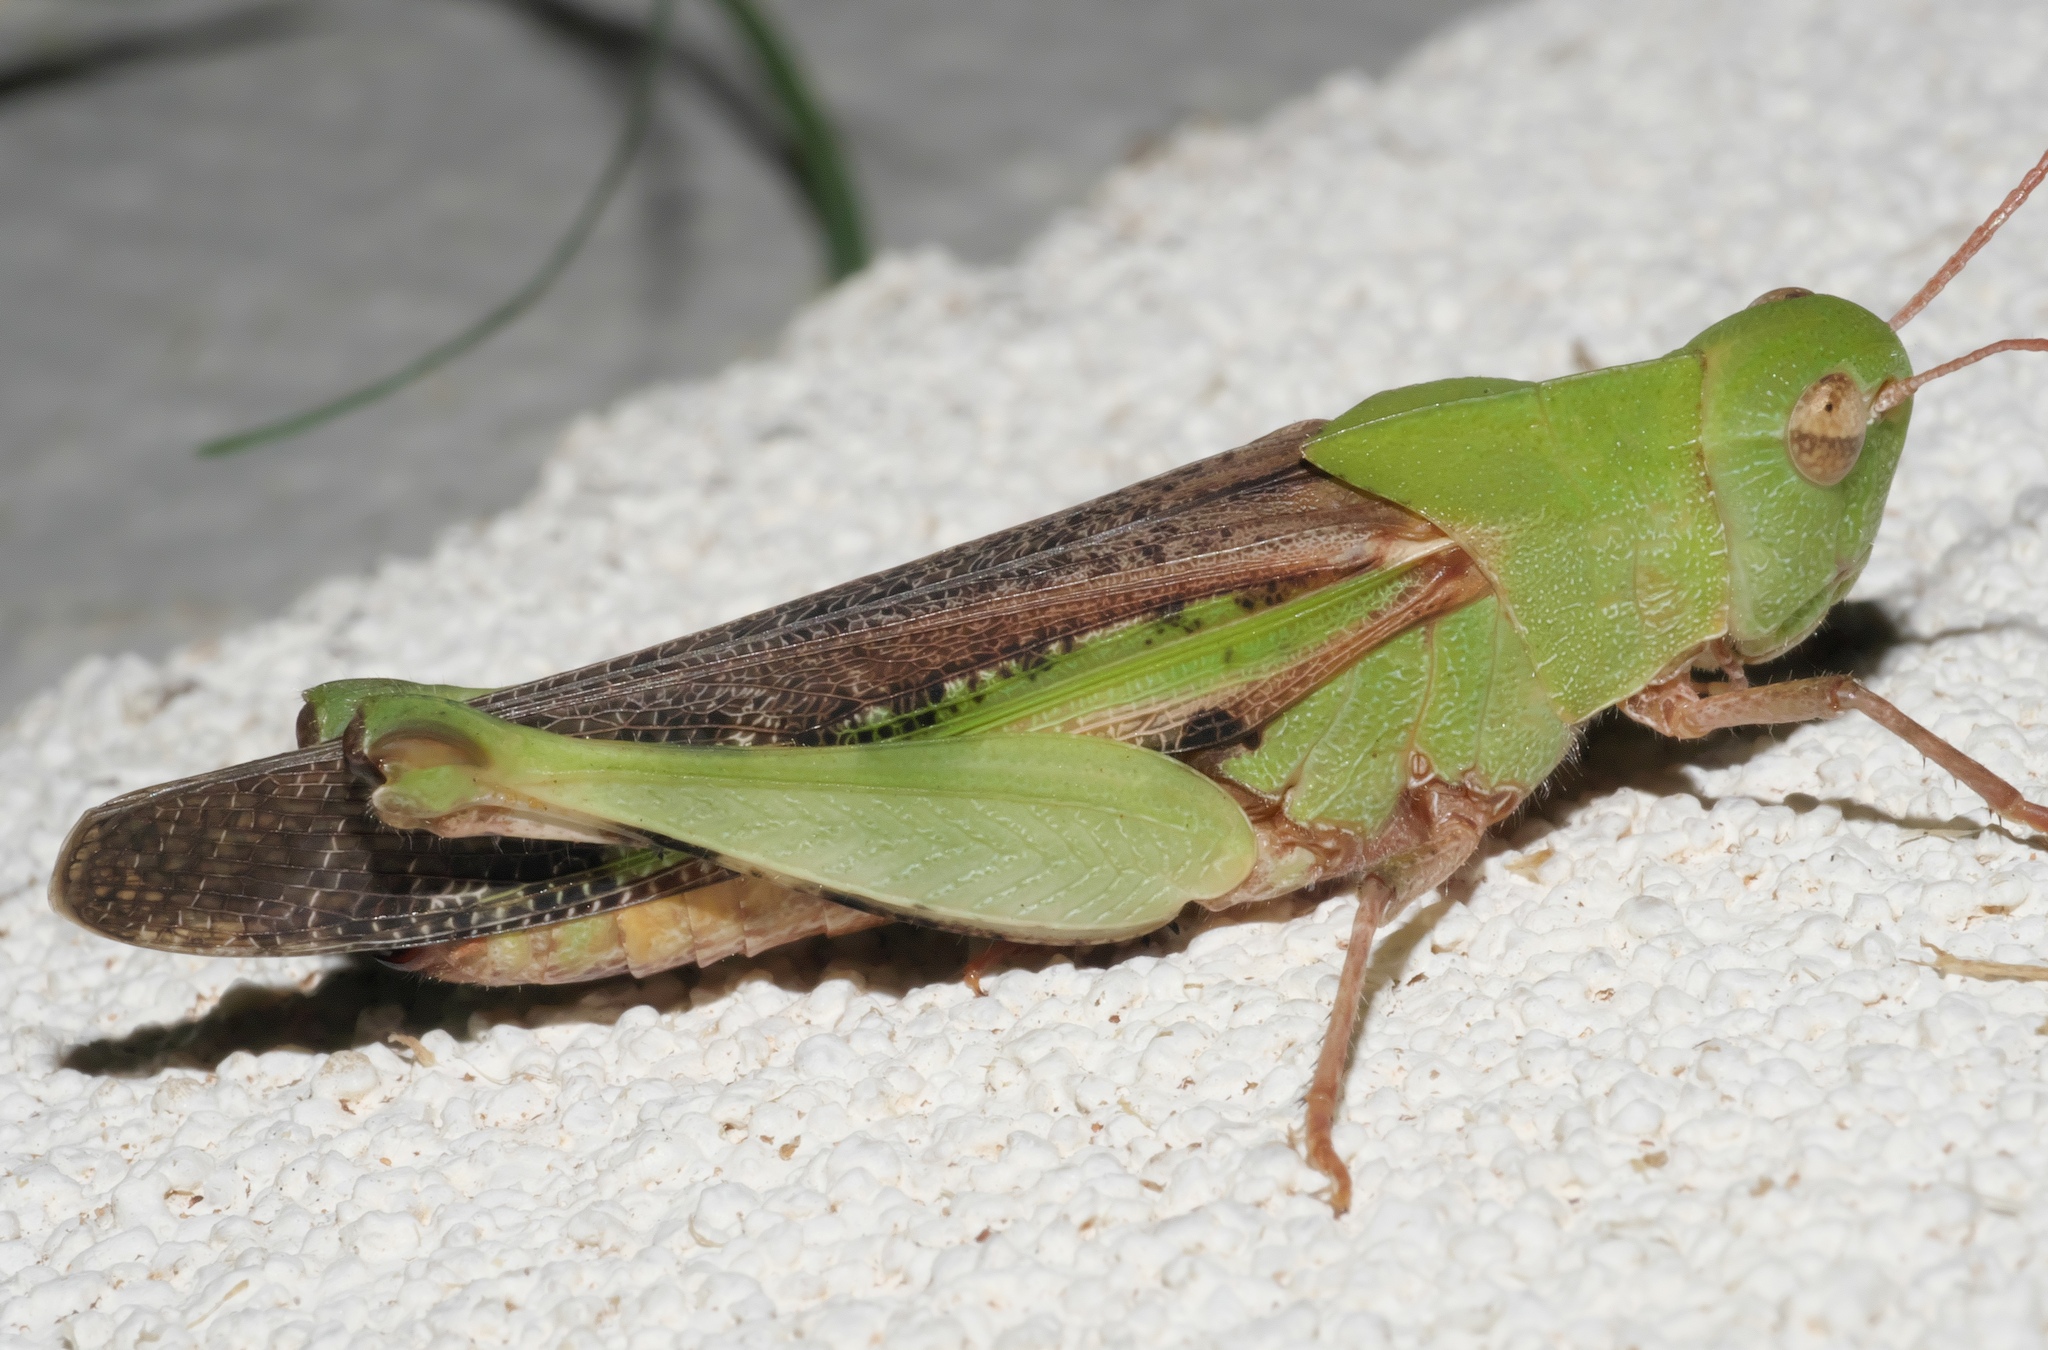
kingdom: Animalia
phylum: Arthropoda
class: Insecta
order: Orthoptera
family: Acrididae
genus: Chortophaga
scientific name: Chortophaga viridifasciata
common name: Green-striped grasshopper
